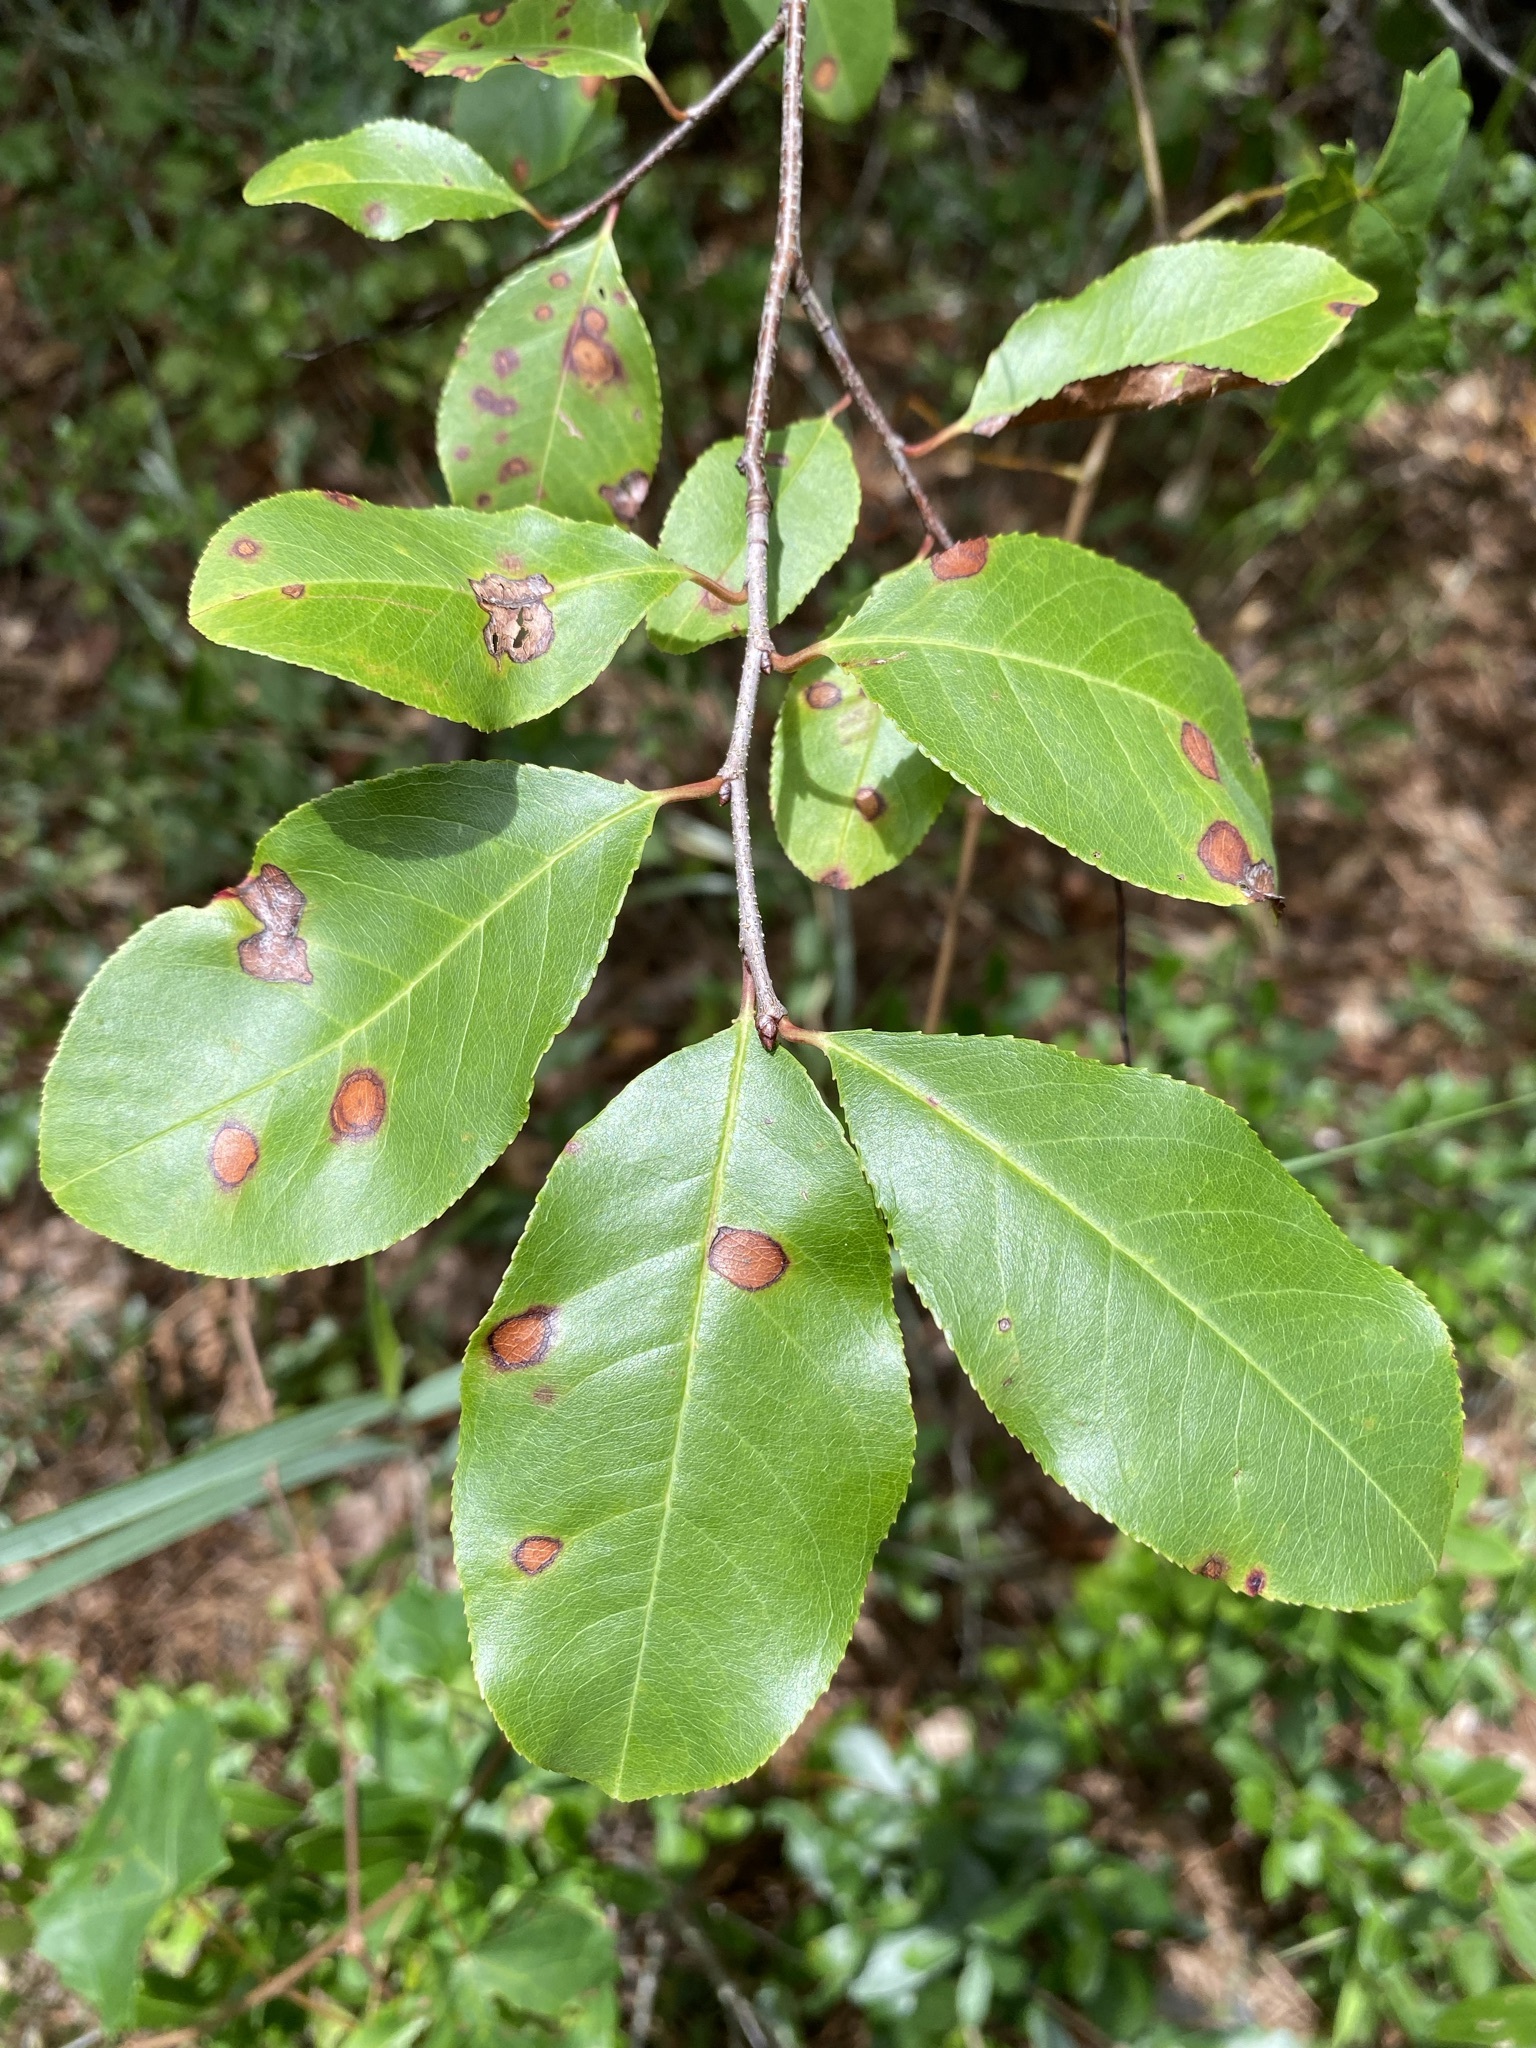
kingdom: Plantae
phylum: Tracheophyta
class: Magnoliopsida
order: Rosales
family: Rosaceae
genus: Prunus
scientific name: Prunus serotina
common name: Black cherry
